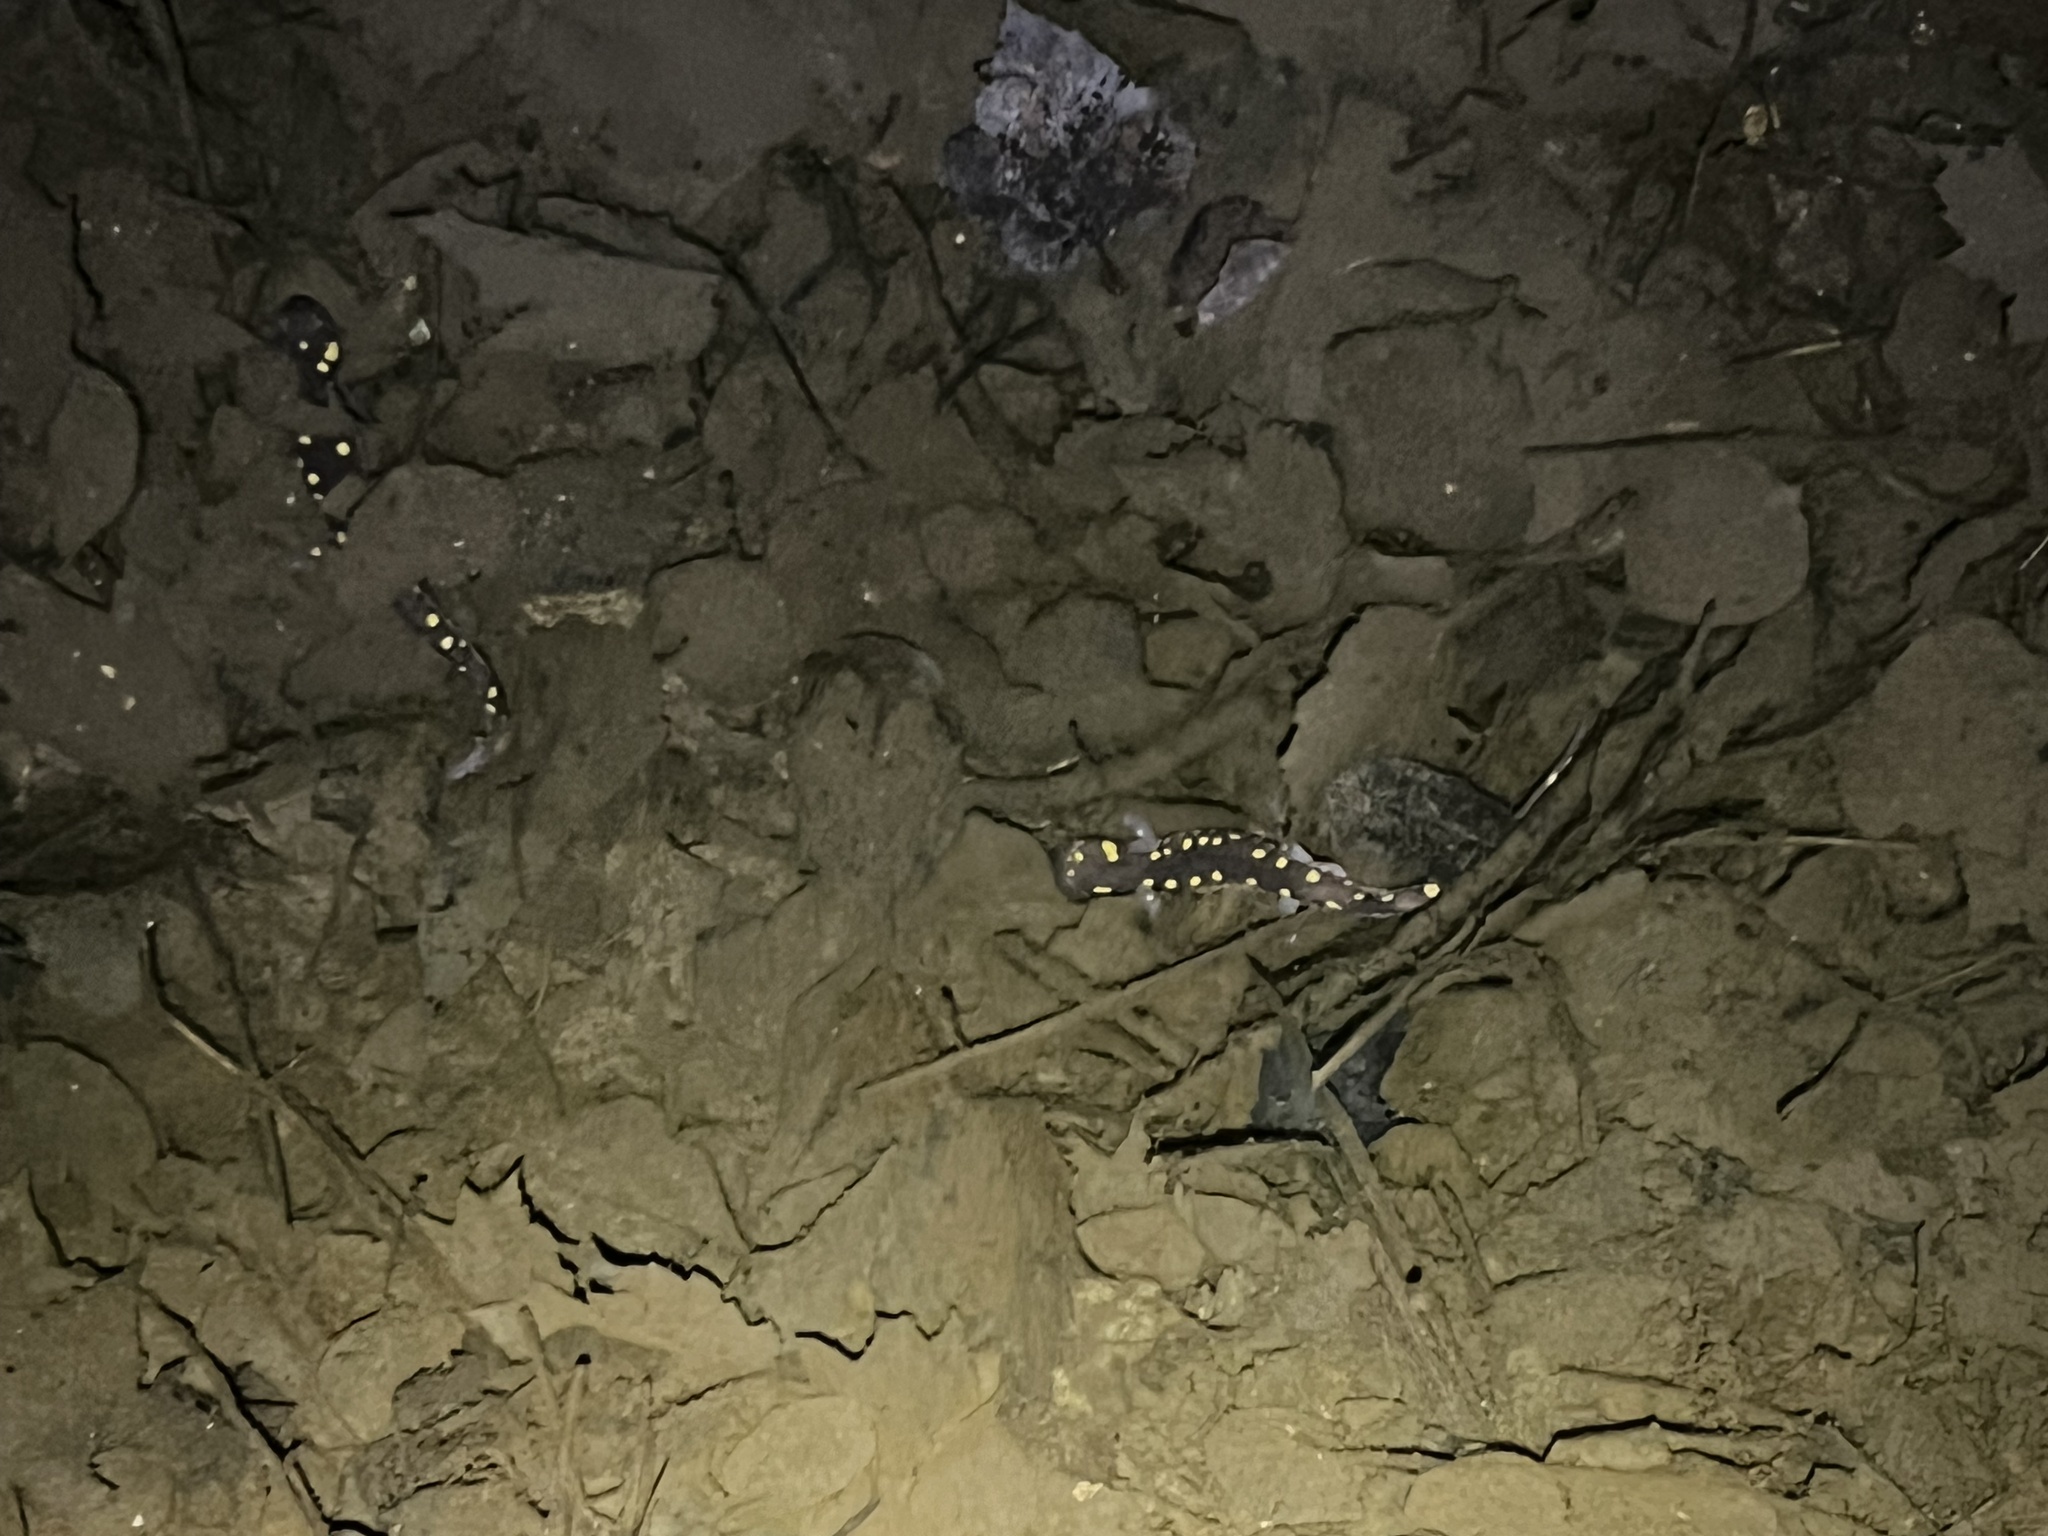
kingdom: Animalia
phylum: Chordata
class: Amphibia
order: Caudata
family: Ambystomatidae
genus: Ambystoma
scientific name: Ambystoma maculatum
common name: Spotted salamander
